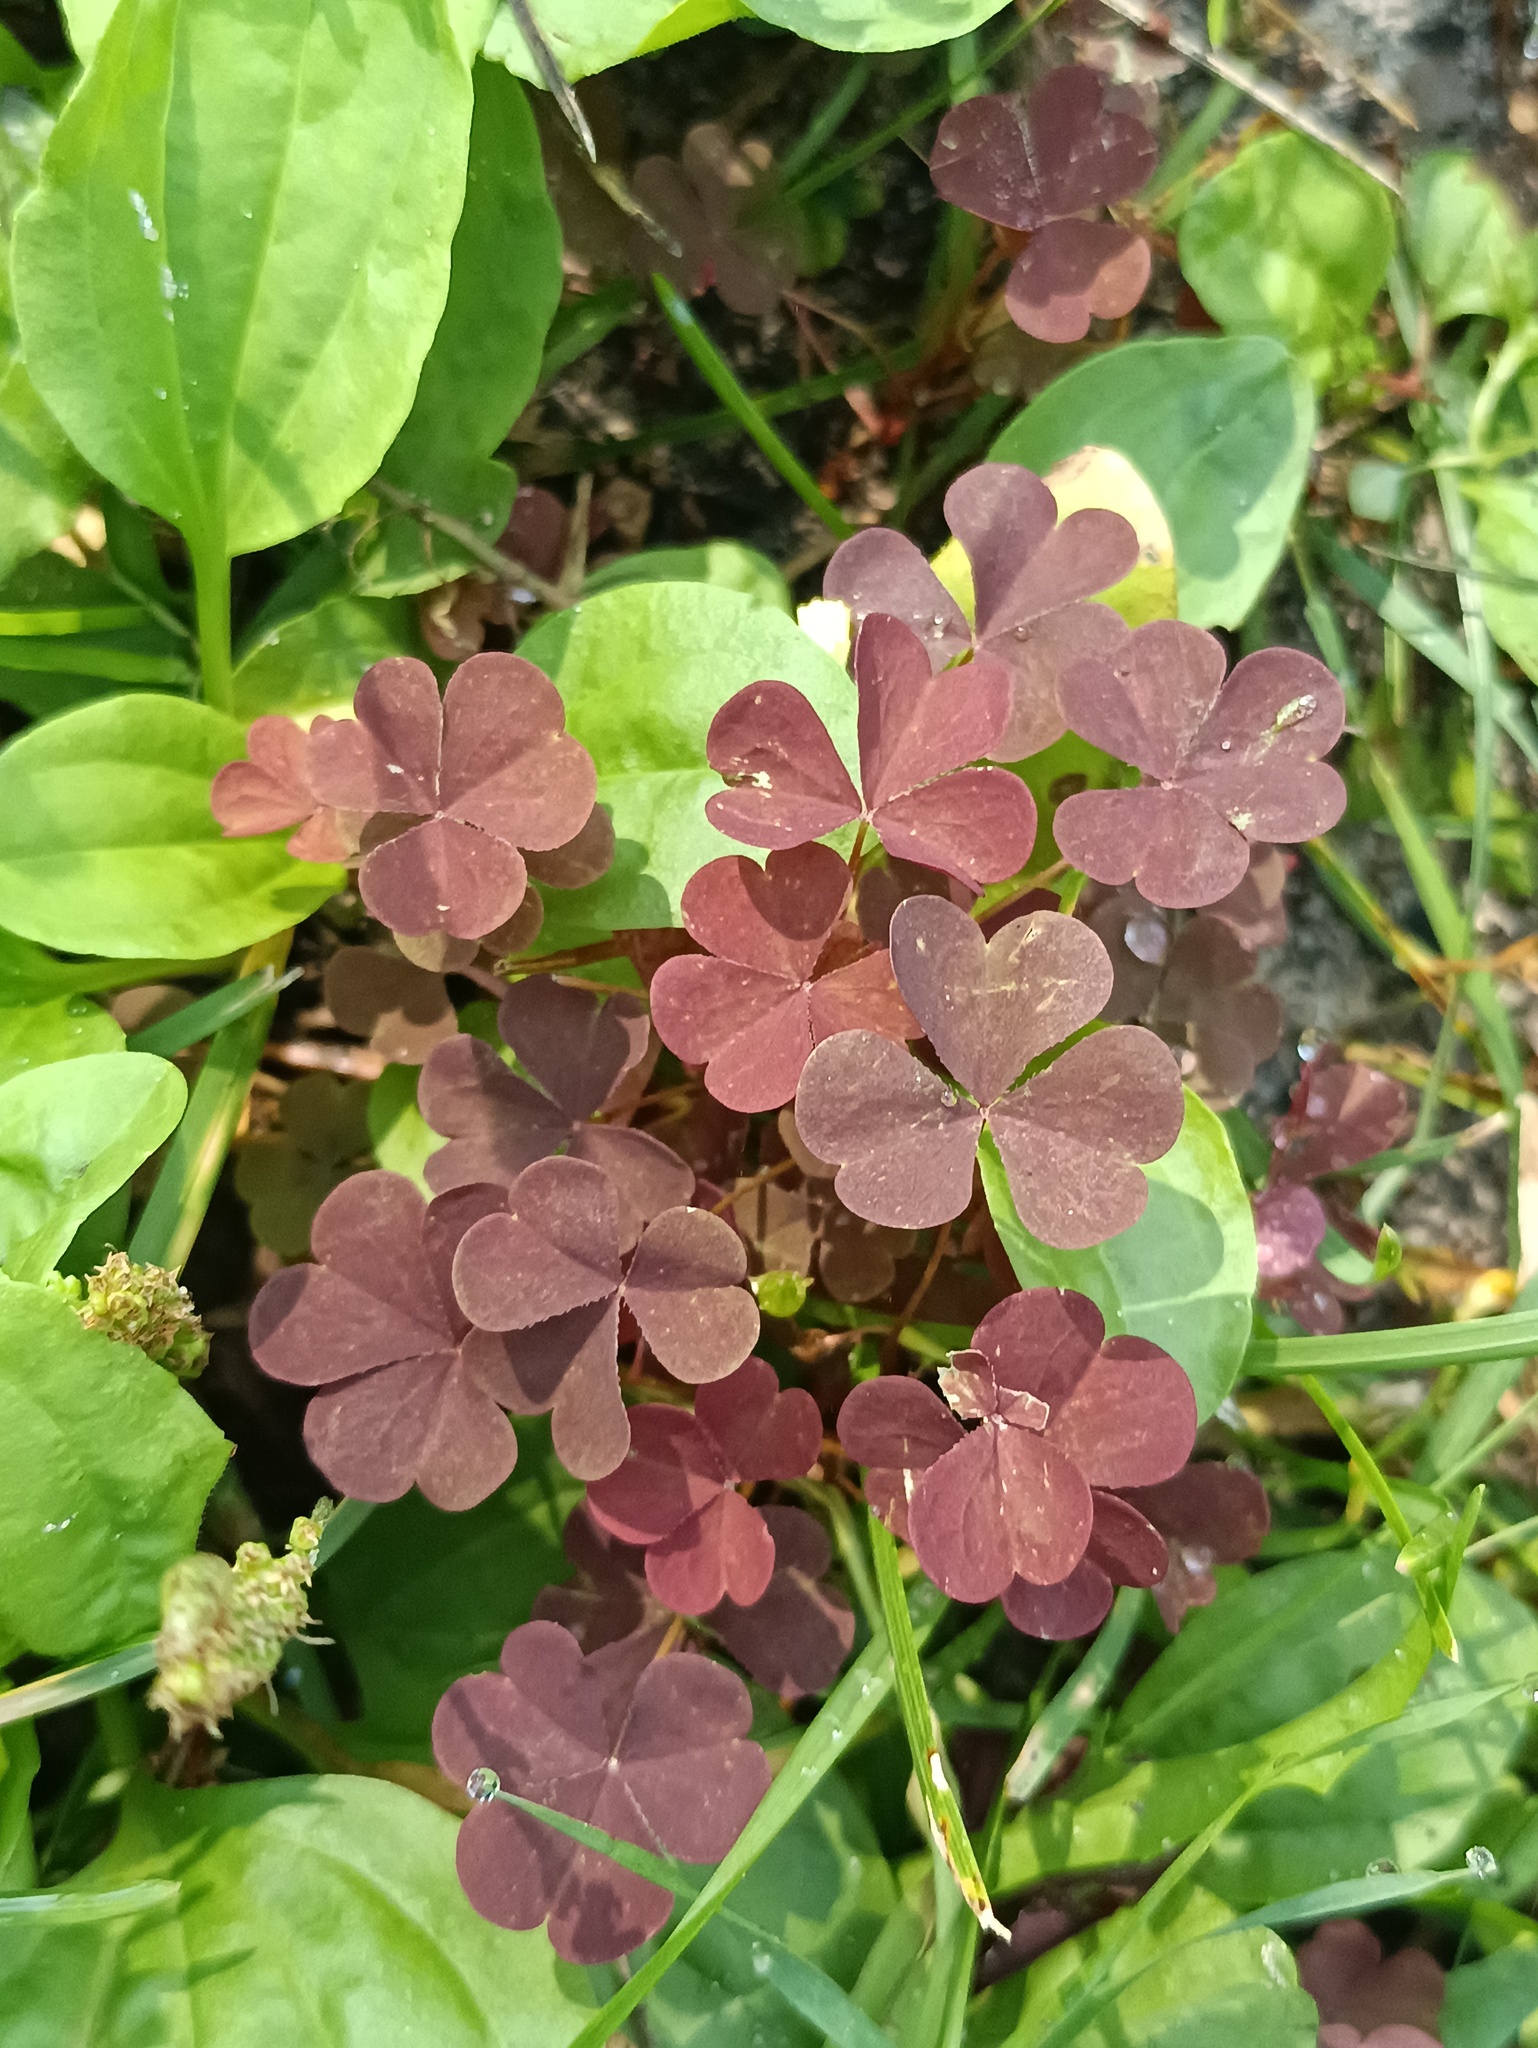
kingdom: Plantae
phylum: Tracheophyta
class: Magnoliopsida
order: Oxalidales
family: Oxalidaceae
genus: Oxalis
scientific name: Oxalis stricta
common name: Upright yellow-sorrel
